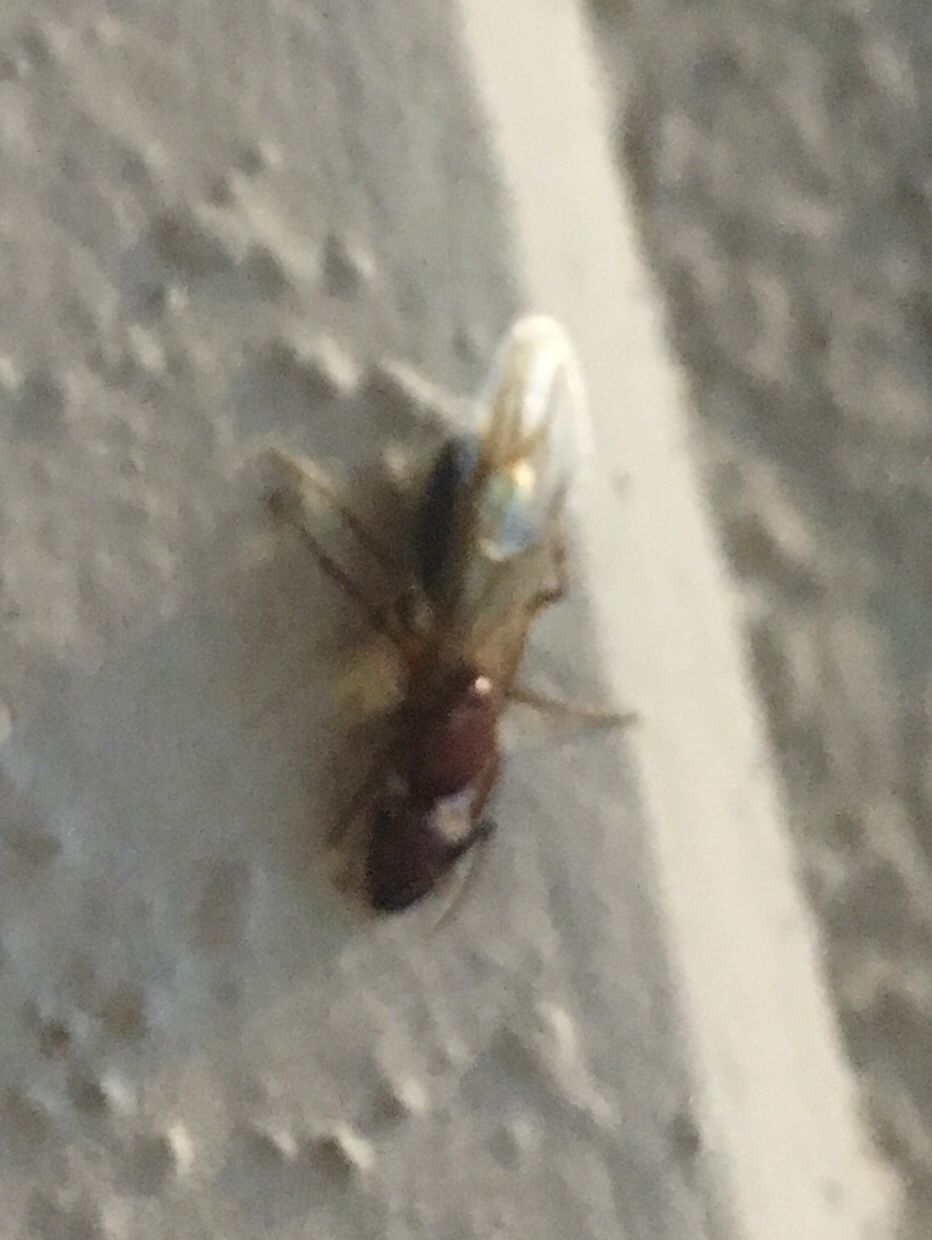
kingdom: Animalia
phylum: Arthropoda
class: Insecta
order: Hymenoptera
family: Formicidae
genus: Camponotus
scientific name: Camponotus floridanus
